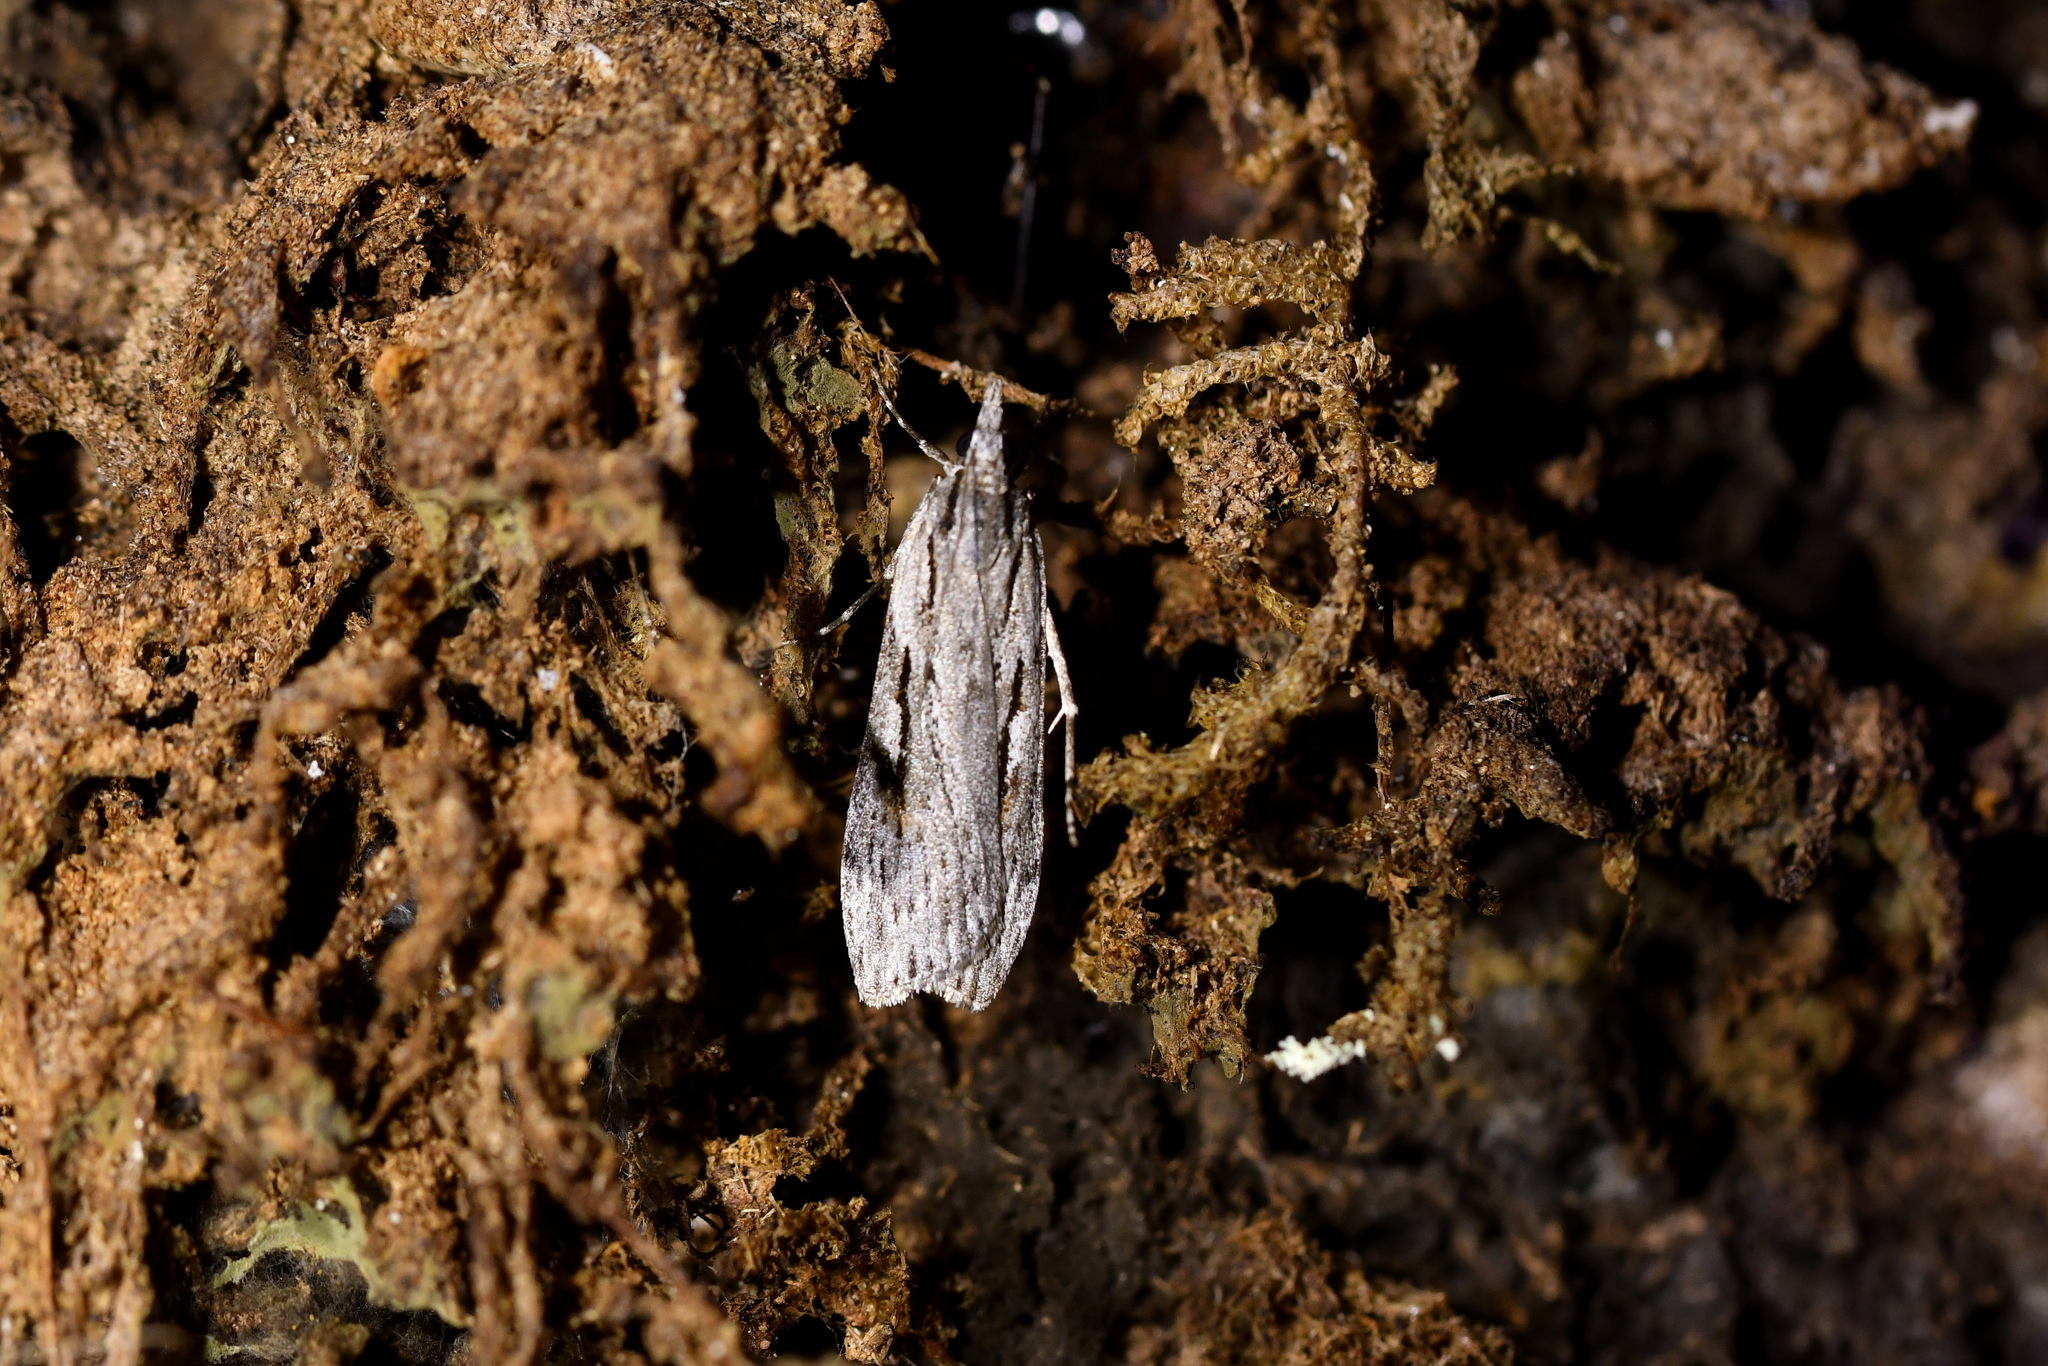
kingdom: Animalia
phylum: Arthropoda
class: Insecta
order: Lepidoptera
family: Crambidae
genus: Scoparia
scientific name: Scoparia indistinctalis
